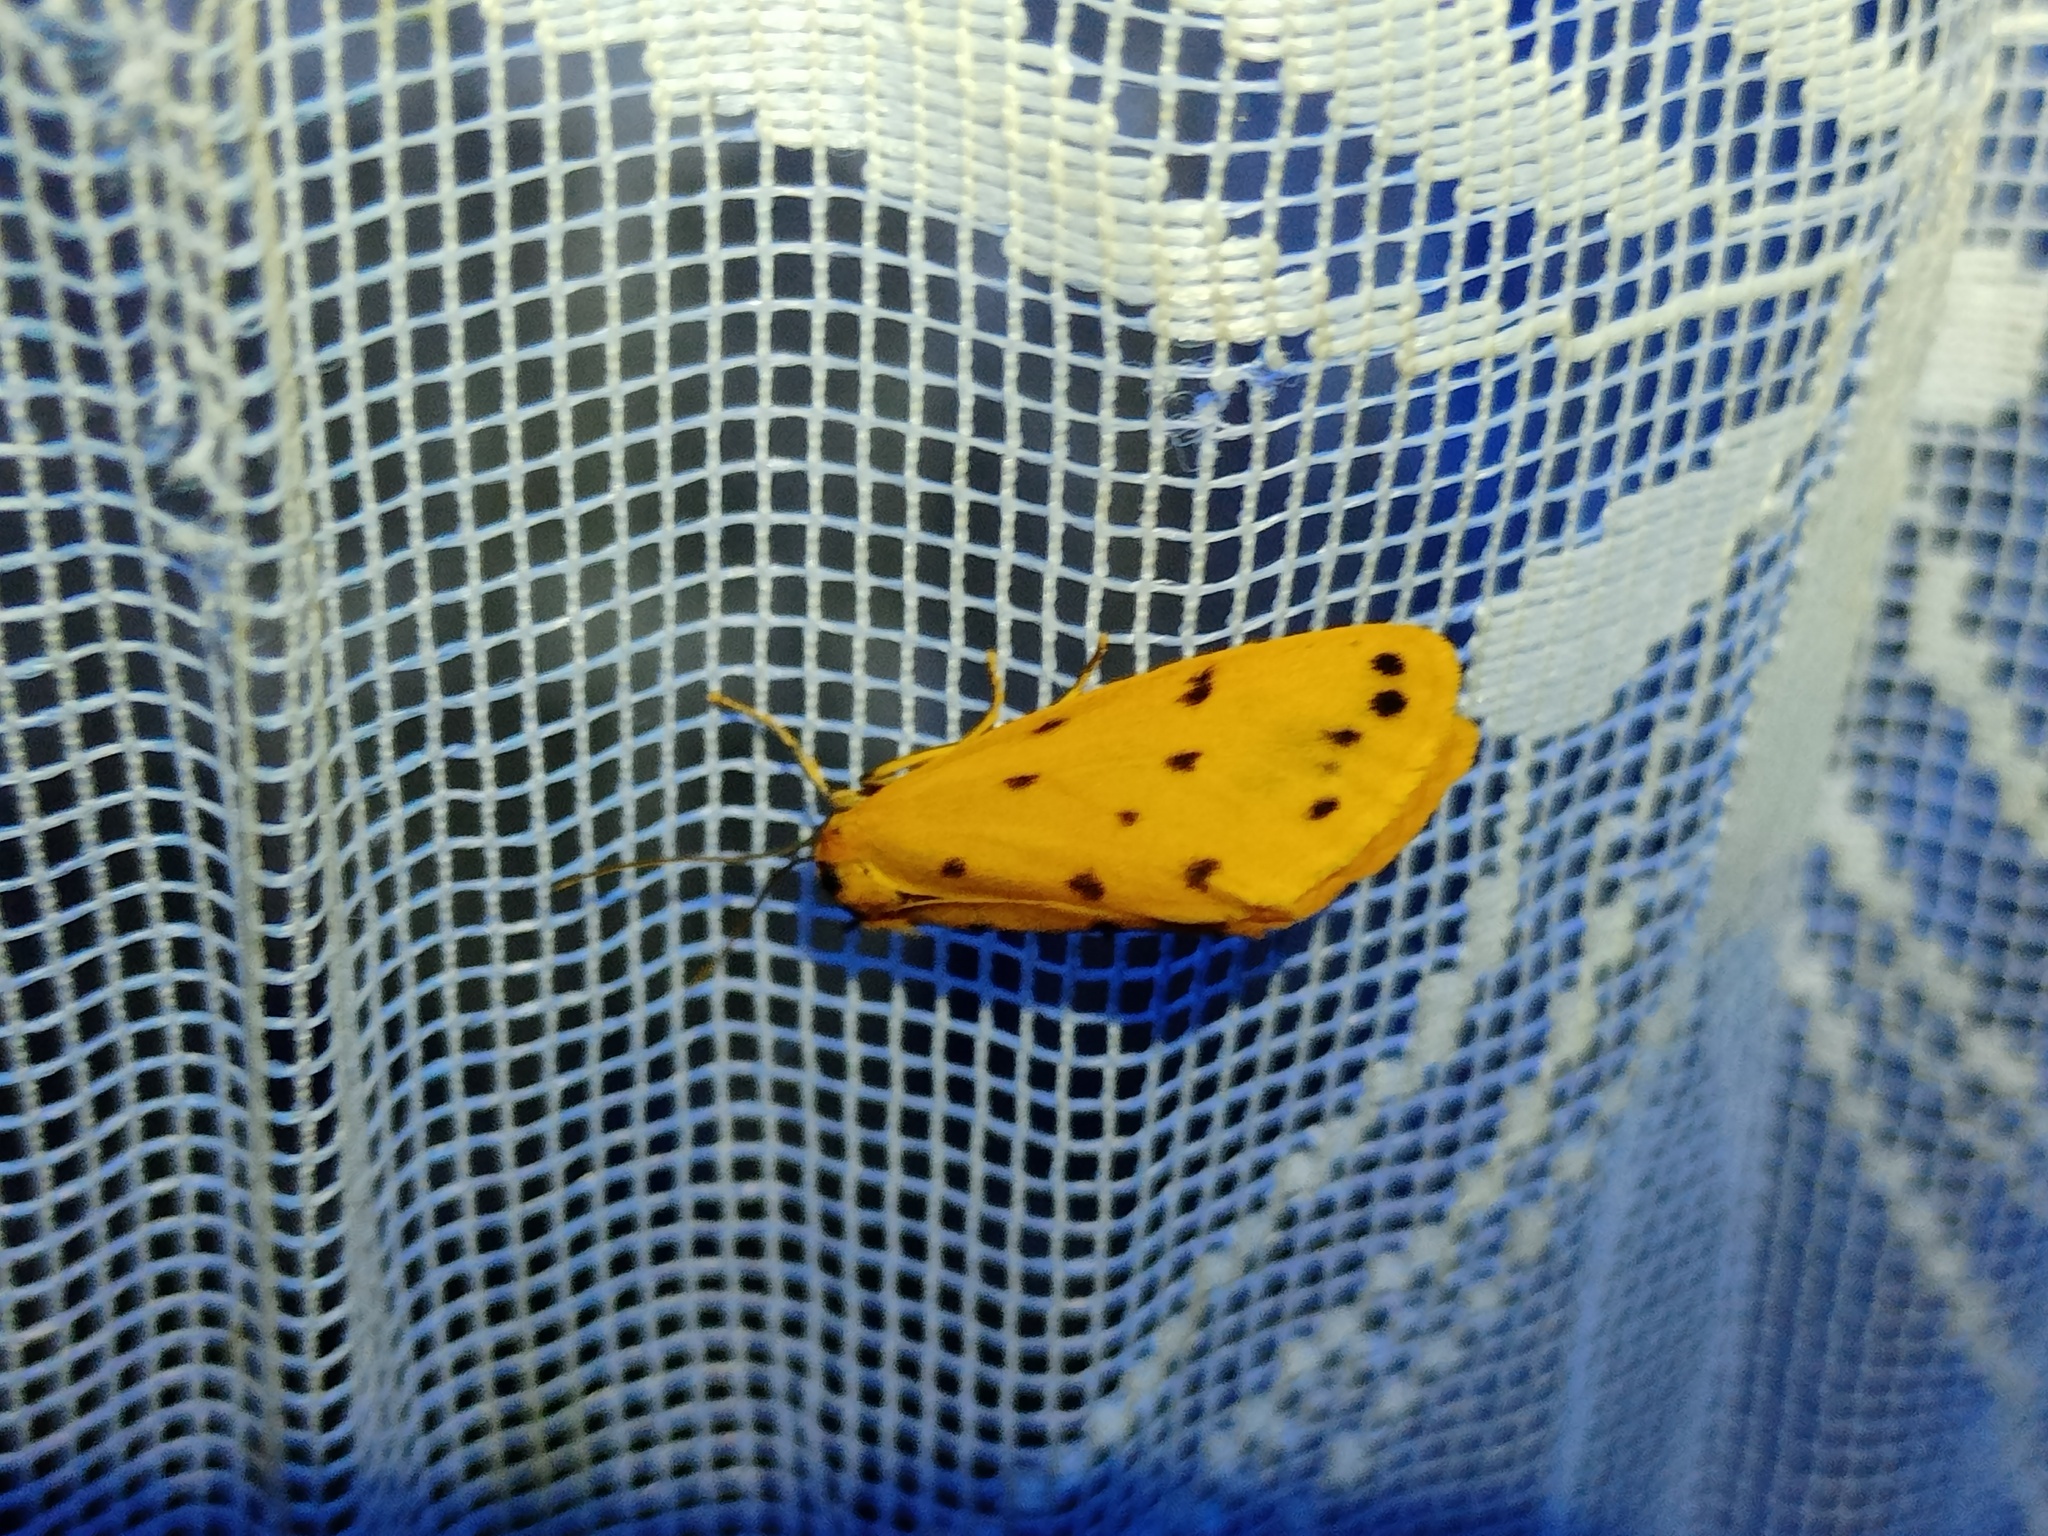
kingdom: Animalia
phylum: Arthropoda
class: Insecta
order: Lepidoptera
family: Erebidae
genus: Setina
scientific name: Setina aurita
